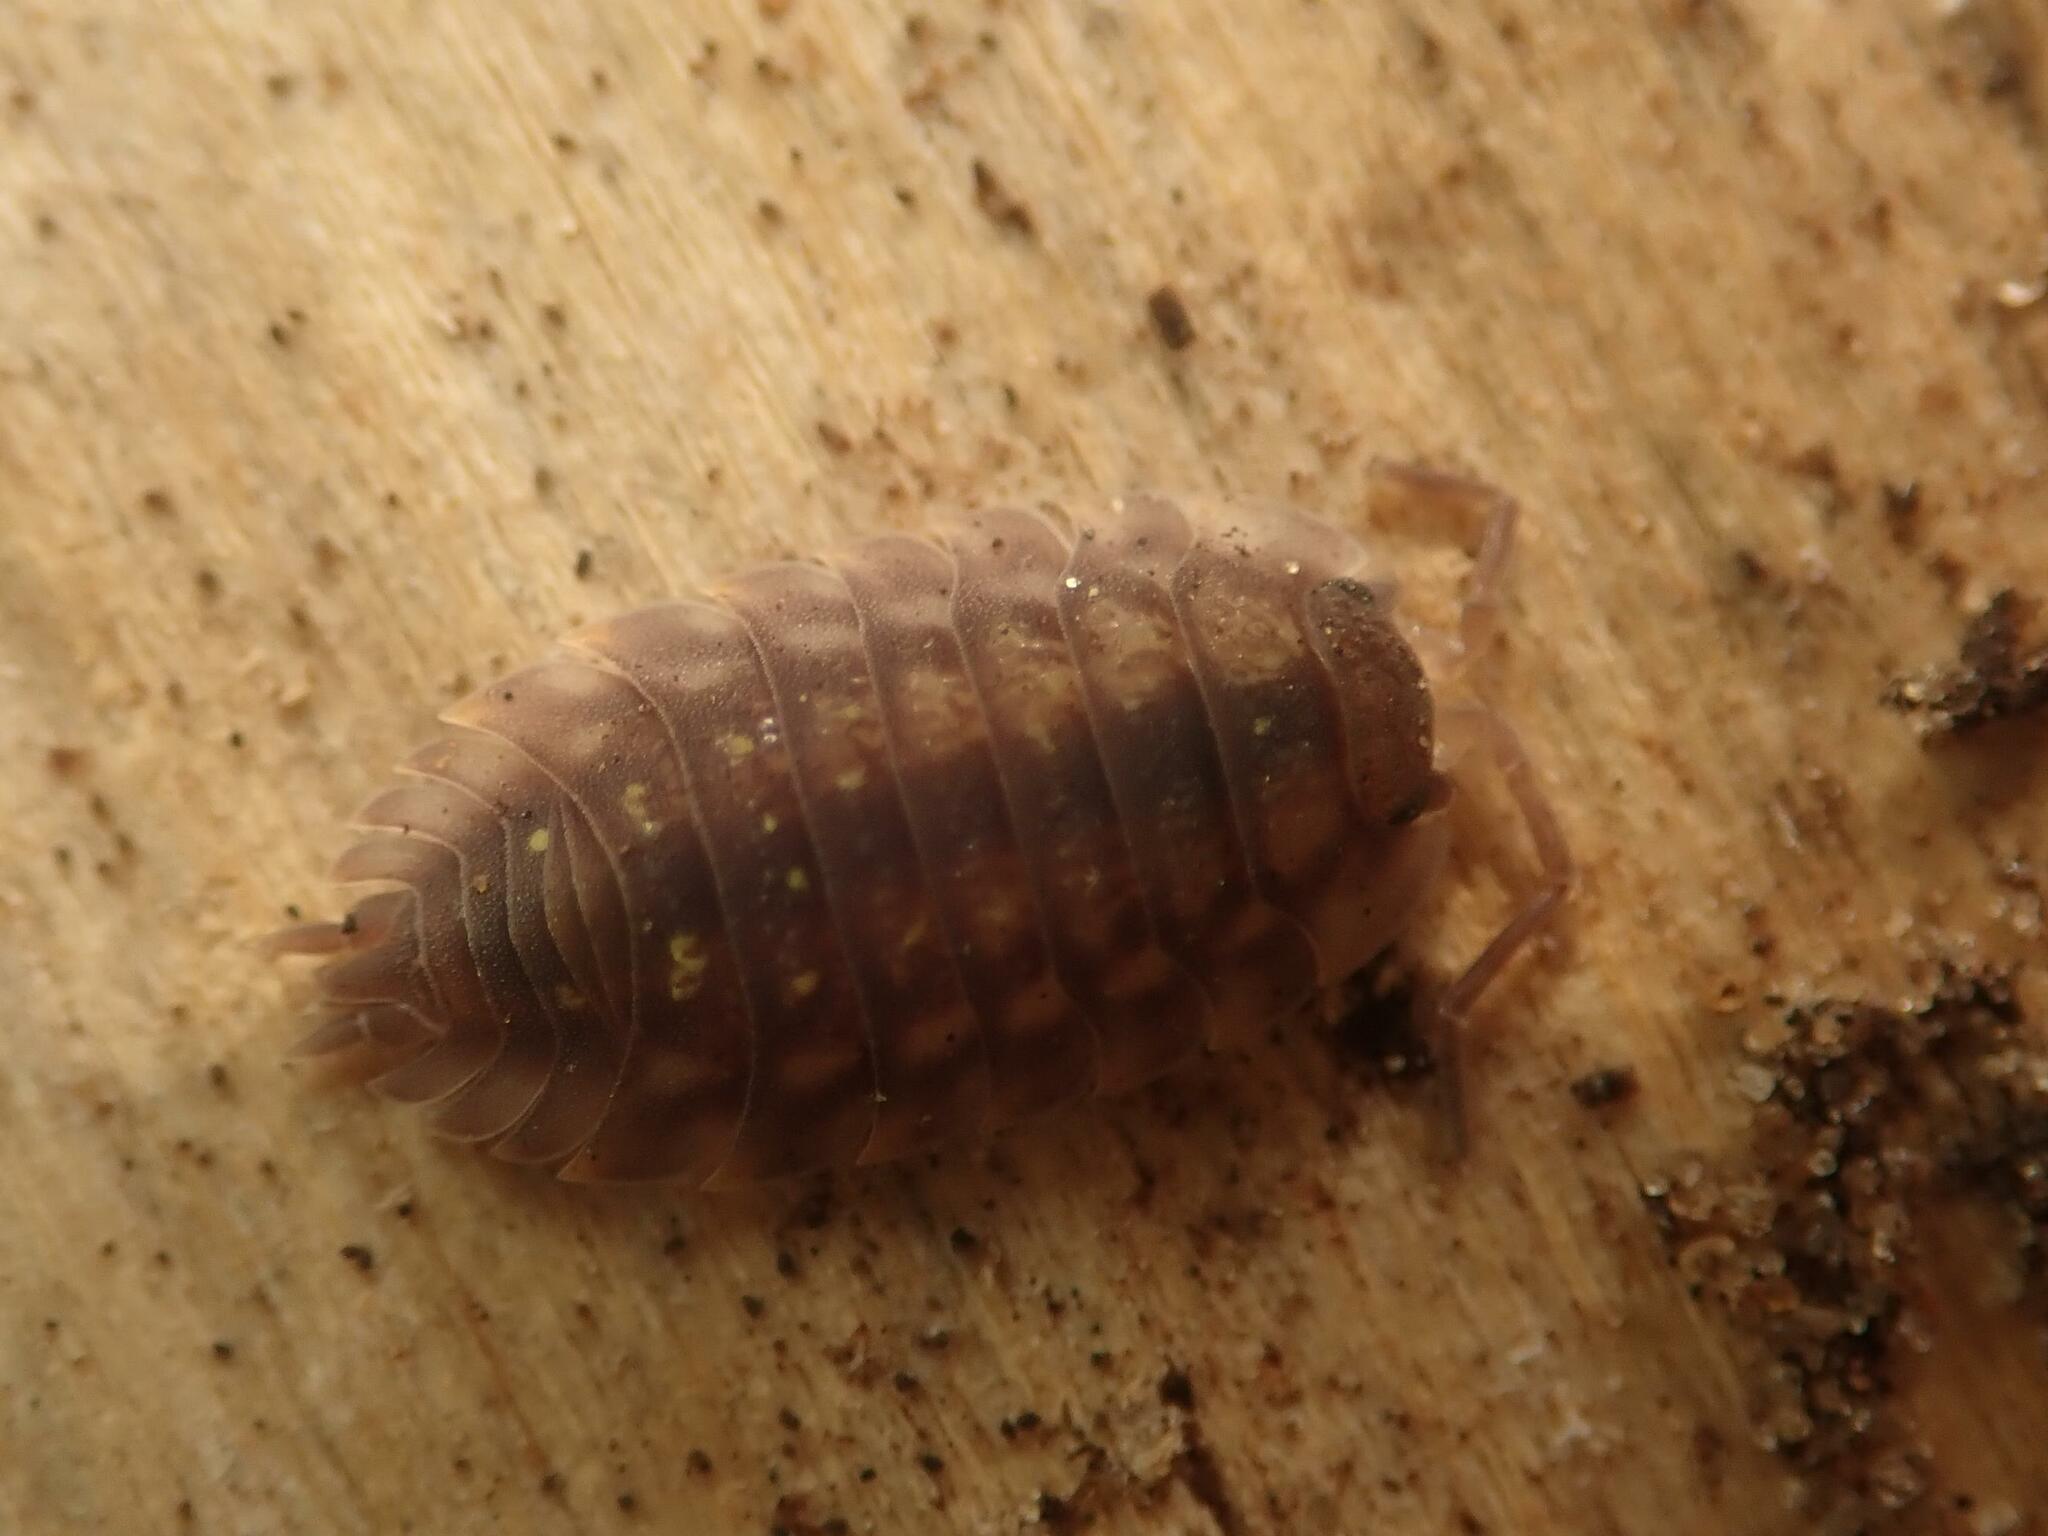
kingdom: Animalia
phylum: Arthropoda
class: Malacostraca
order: Isopoda
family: Oniscidae
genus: Oniscus
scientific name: Oniscus asellus
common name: Common shiny woodlouse
